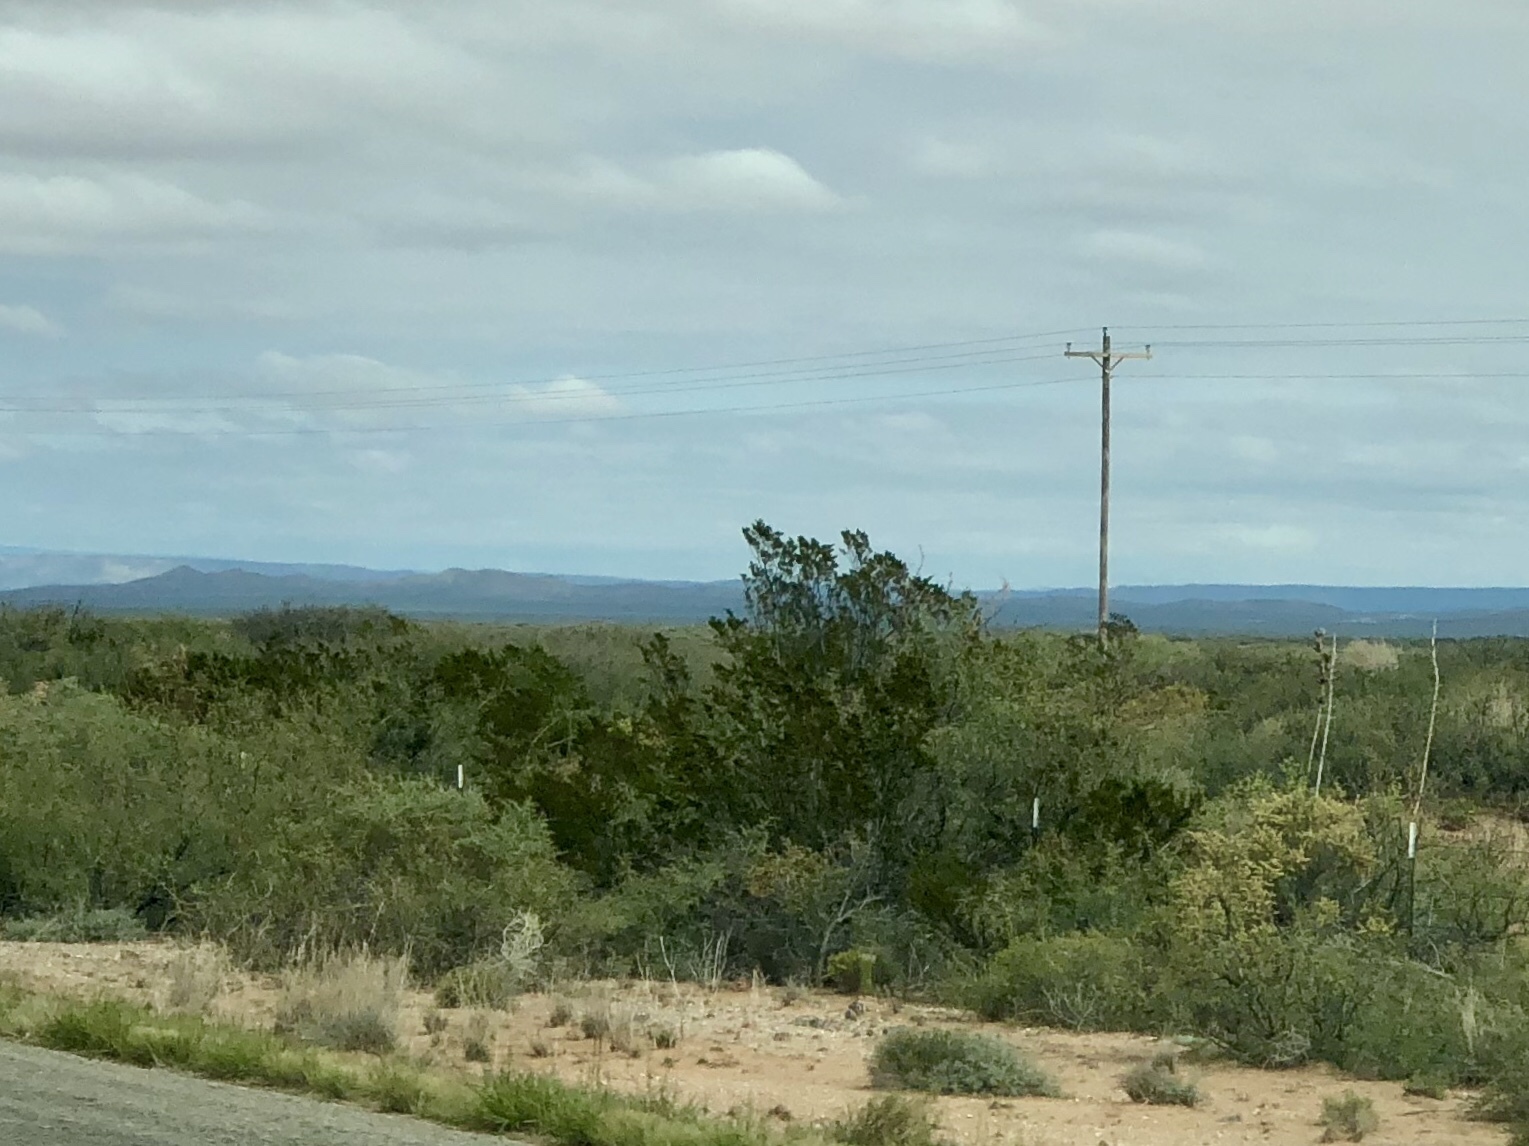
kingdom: Plantae
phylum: Tracheophyta
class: Magnoliopsida
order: Zygophyllales
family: Zygophyllaceae
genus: Larrea
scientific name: Larrea tridentata
